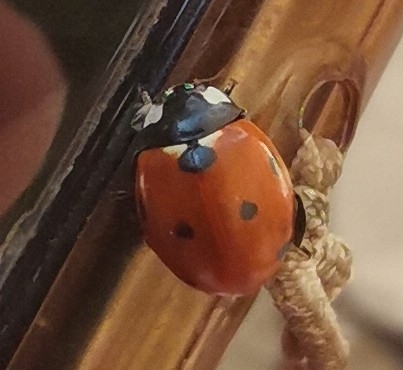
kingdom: Animalia
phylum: Arthropoda
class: Insecta
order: Coleoptera
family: Coccinellidae
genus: Coccinella
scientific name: Coccinella septempunctata
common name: Sevenspotted lady beetle
